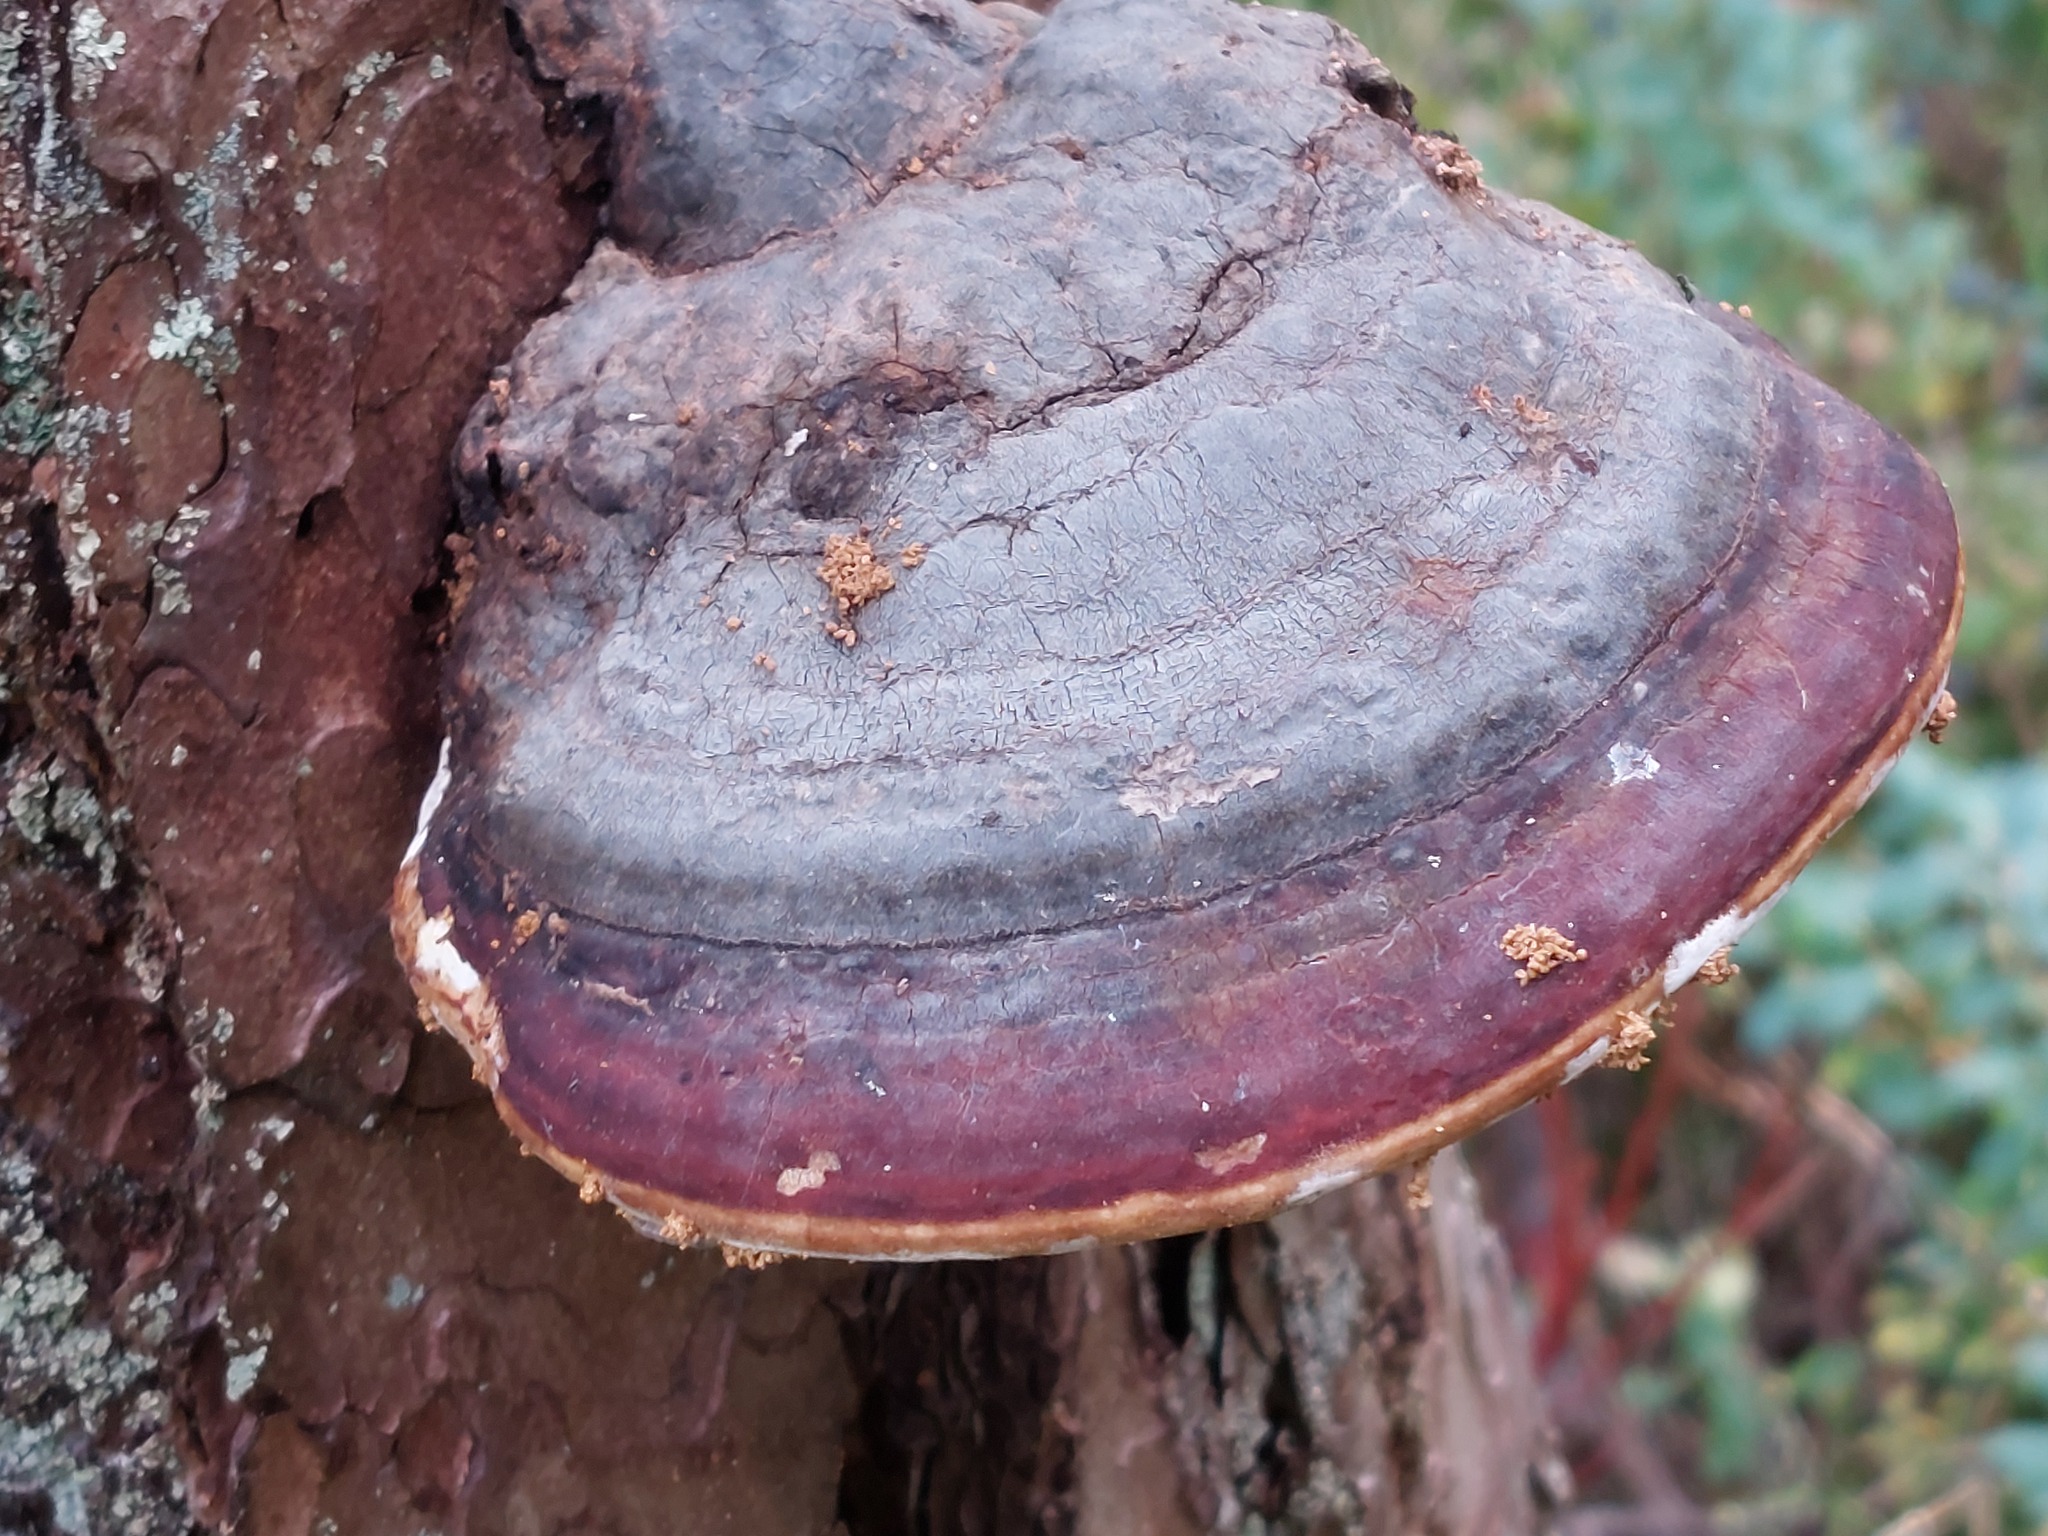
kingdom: Fungi
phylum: Basidiomycota
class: Agaricomycetes
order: Polyporales
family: Fomitopsidaceae
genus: Fomitopsis
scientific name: Fomitopsis pinicola
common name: Red-belted bracket
